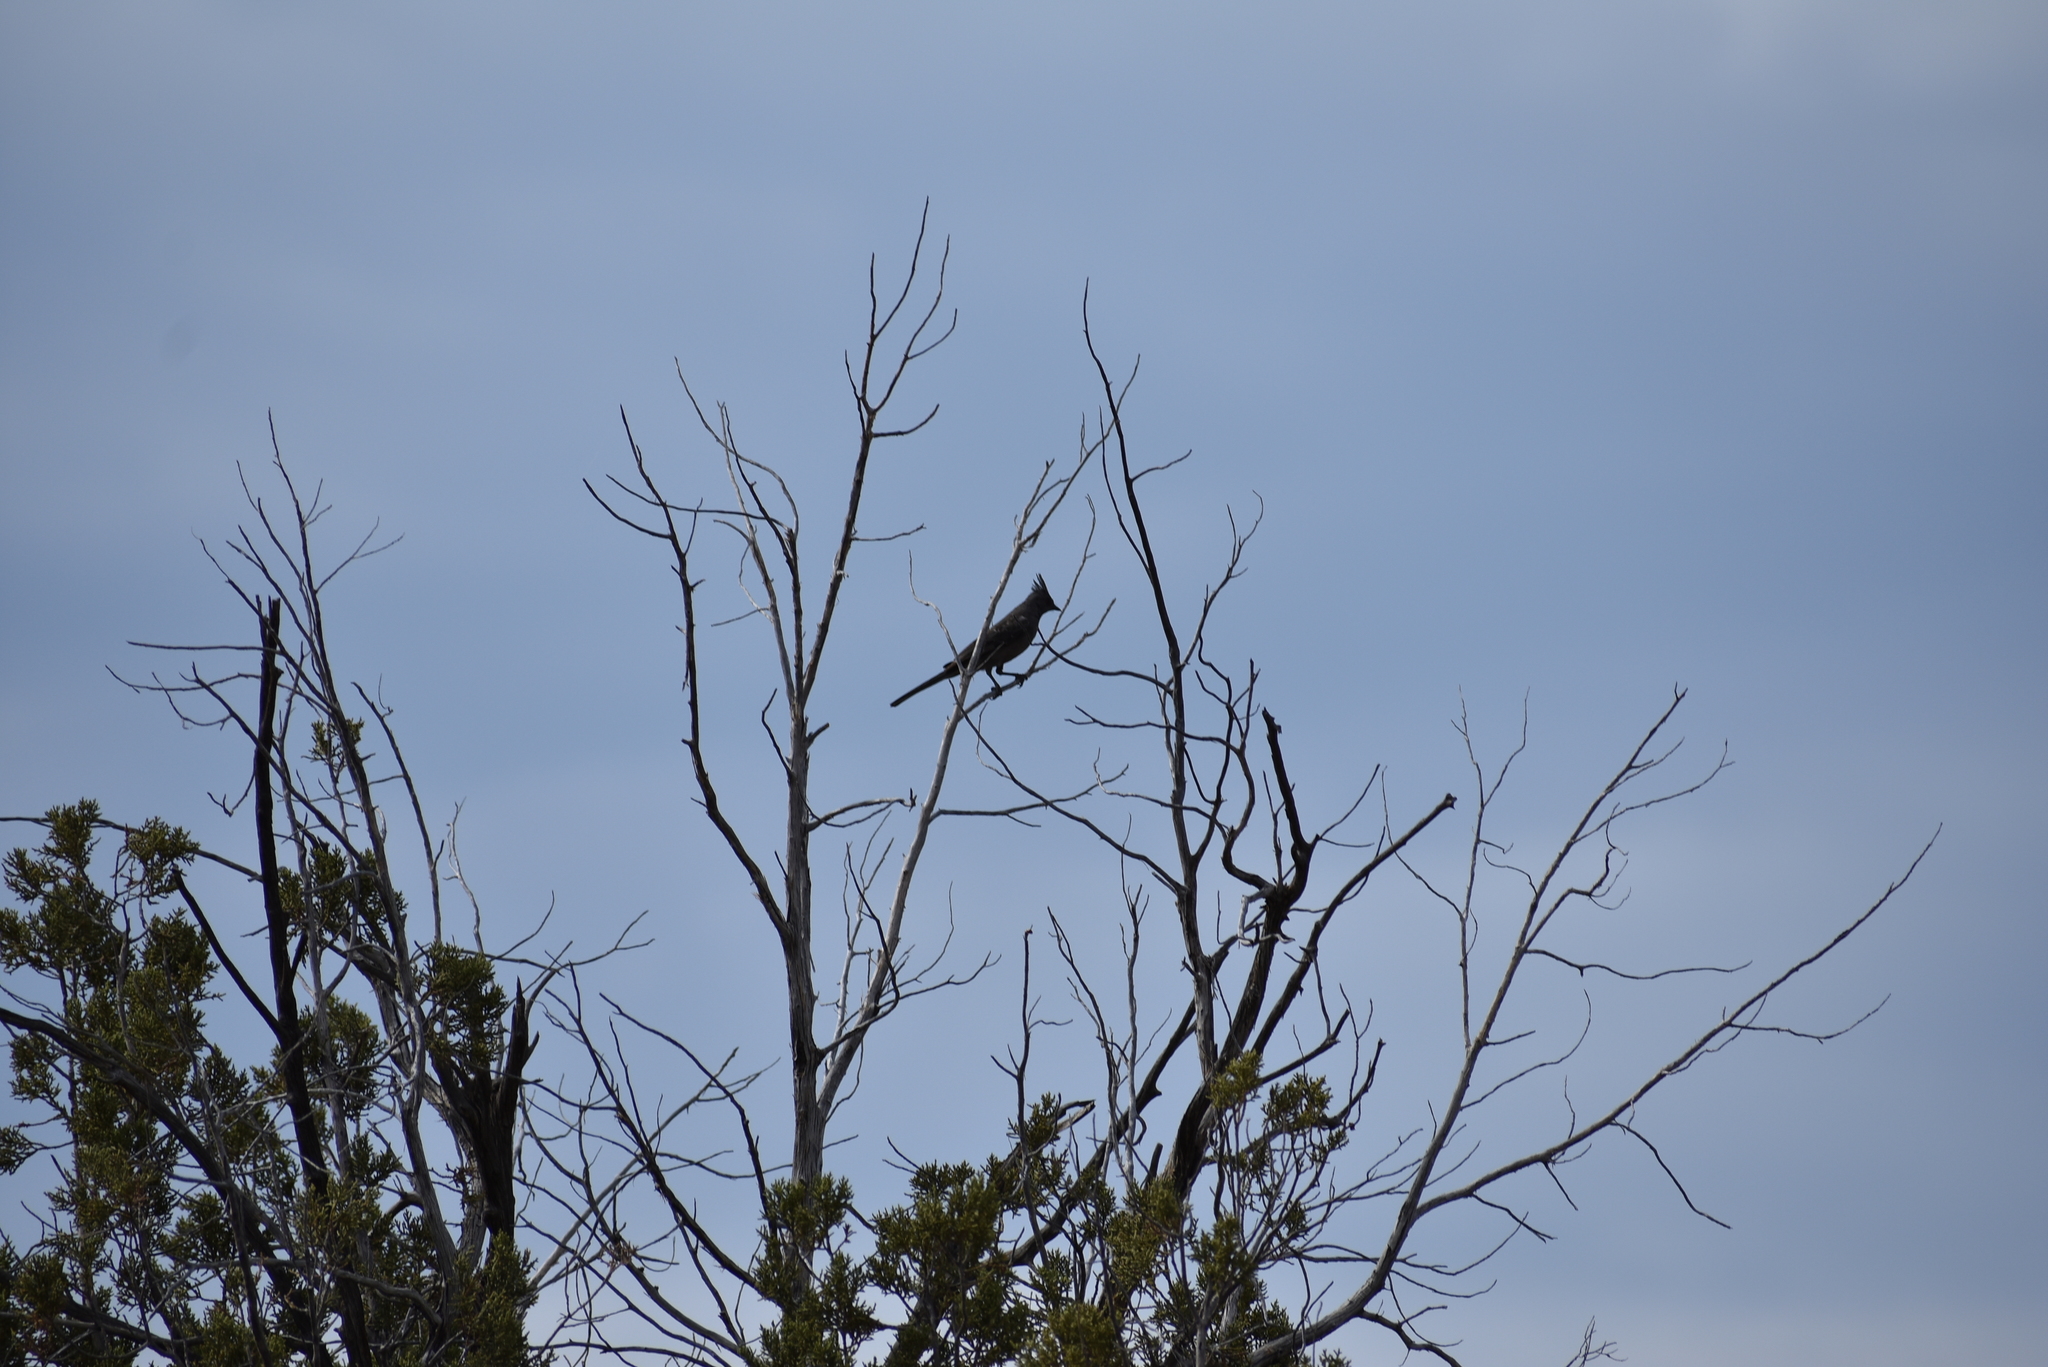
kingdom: Animalia
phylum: Chordata
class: Aves
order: Passeriformes
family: Ptilogonatidae
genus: Phainopepla
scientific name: Phainopepla nitens
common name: Phainopepla
